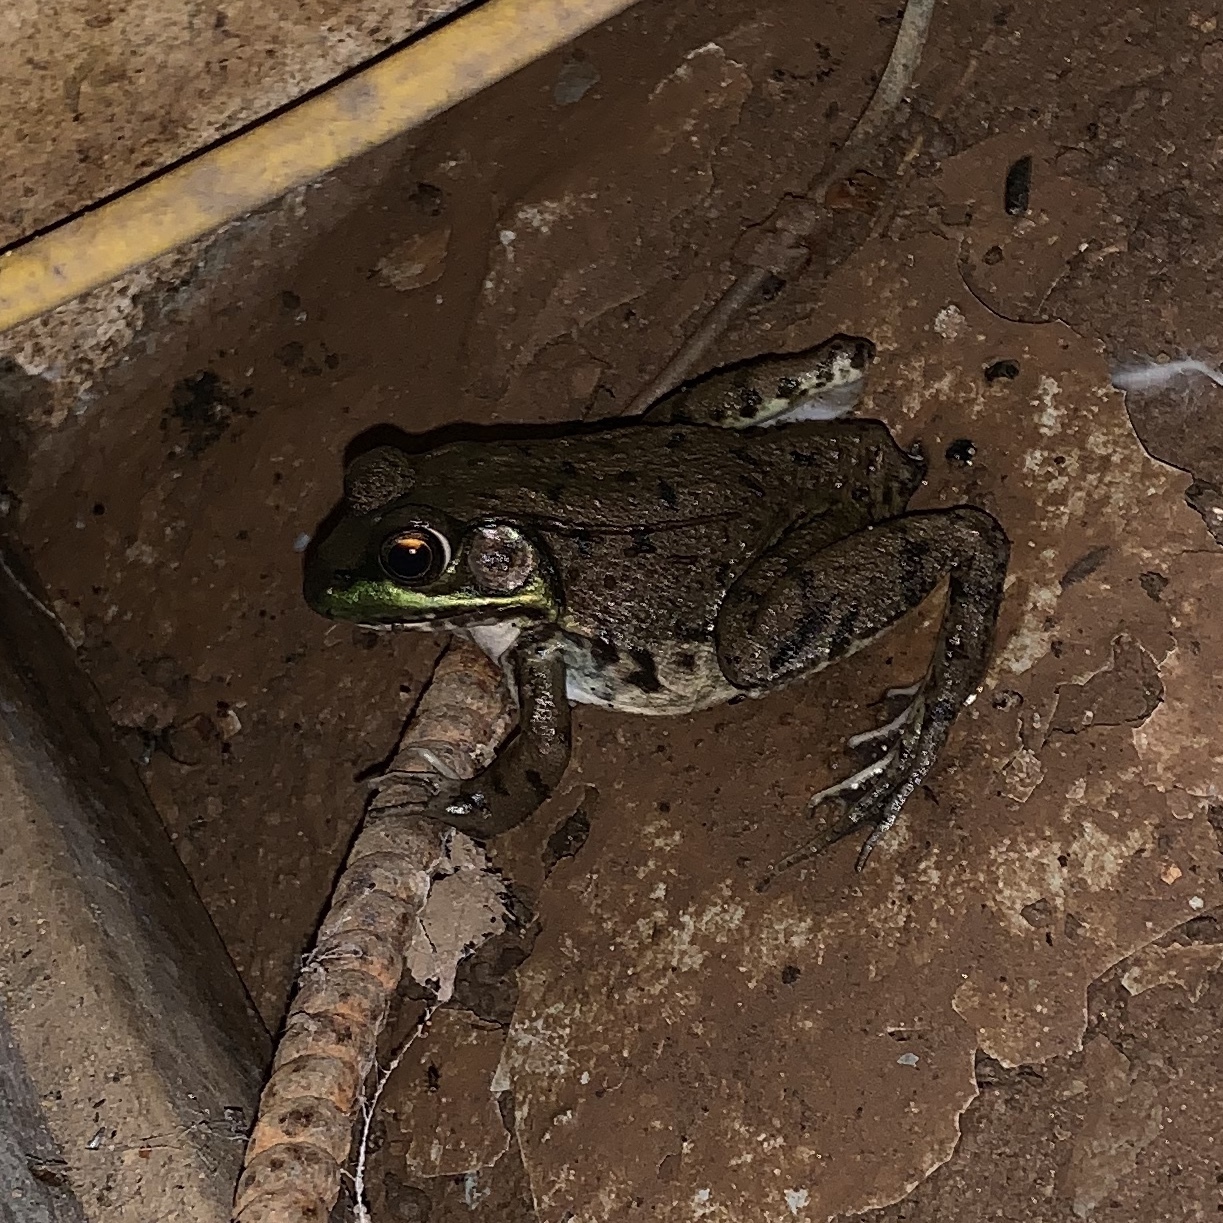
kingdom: Animalia
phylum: Chordata
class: Amphibia
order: Anura
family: Ranidae
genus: Lithobates
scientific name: Lithobates clamitans
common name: Green frog
